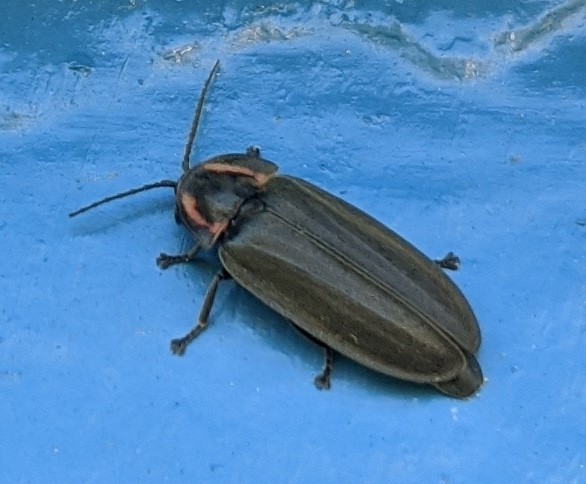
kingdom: Animalia
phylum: Arthropoda
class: Insecta
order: Coleoptera
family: Lampyridae
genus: Photinus
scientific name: Photinus corrusca
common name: Winter firefly
